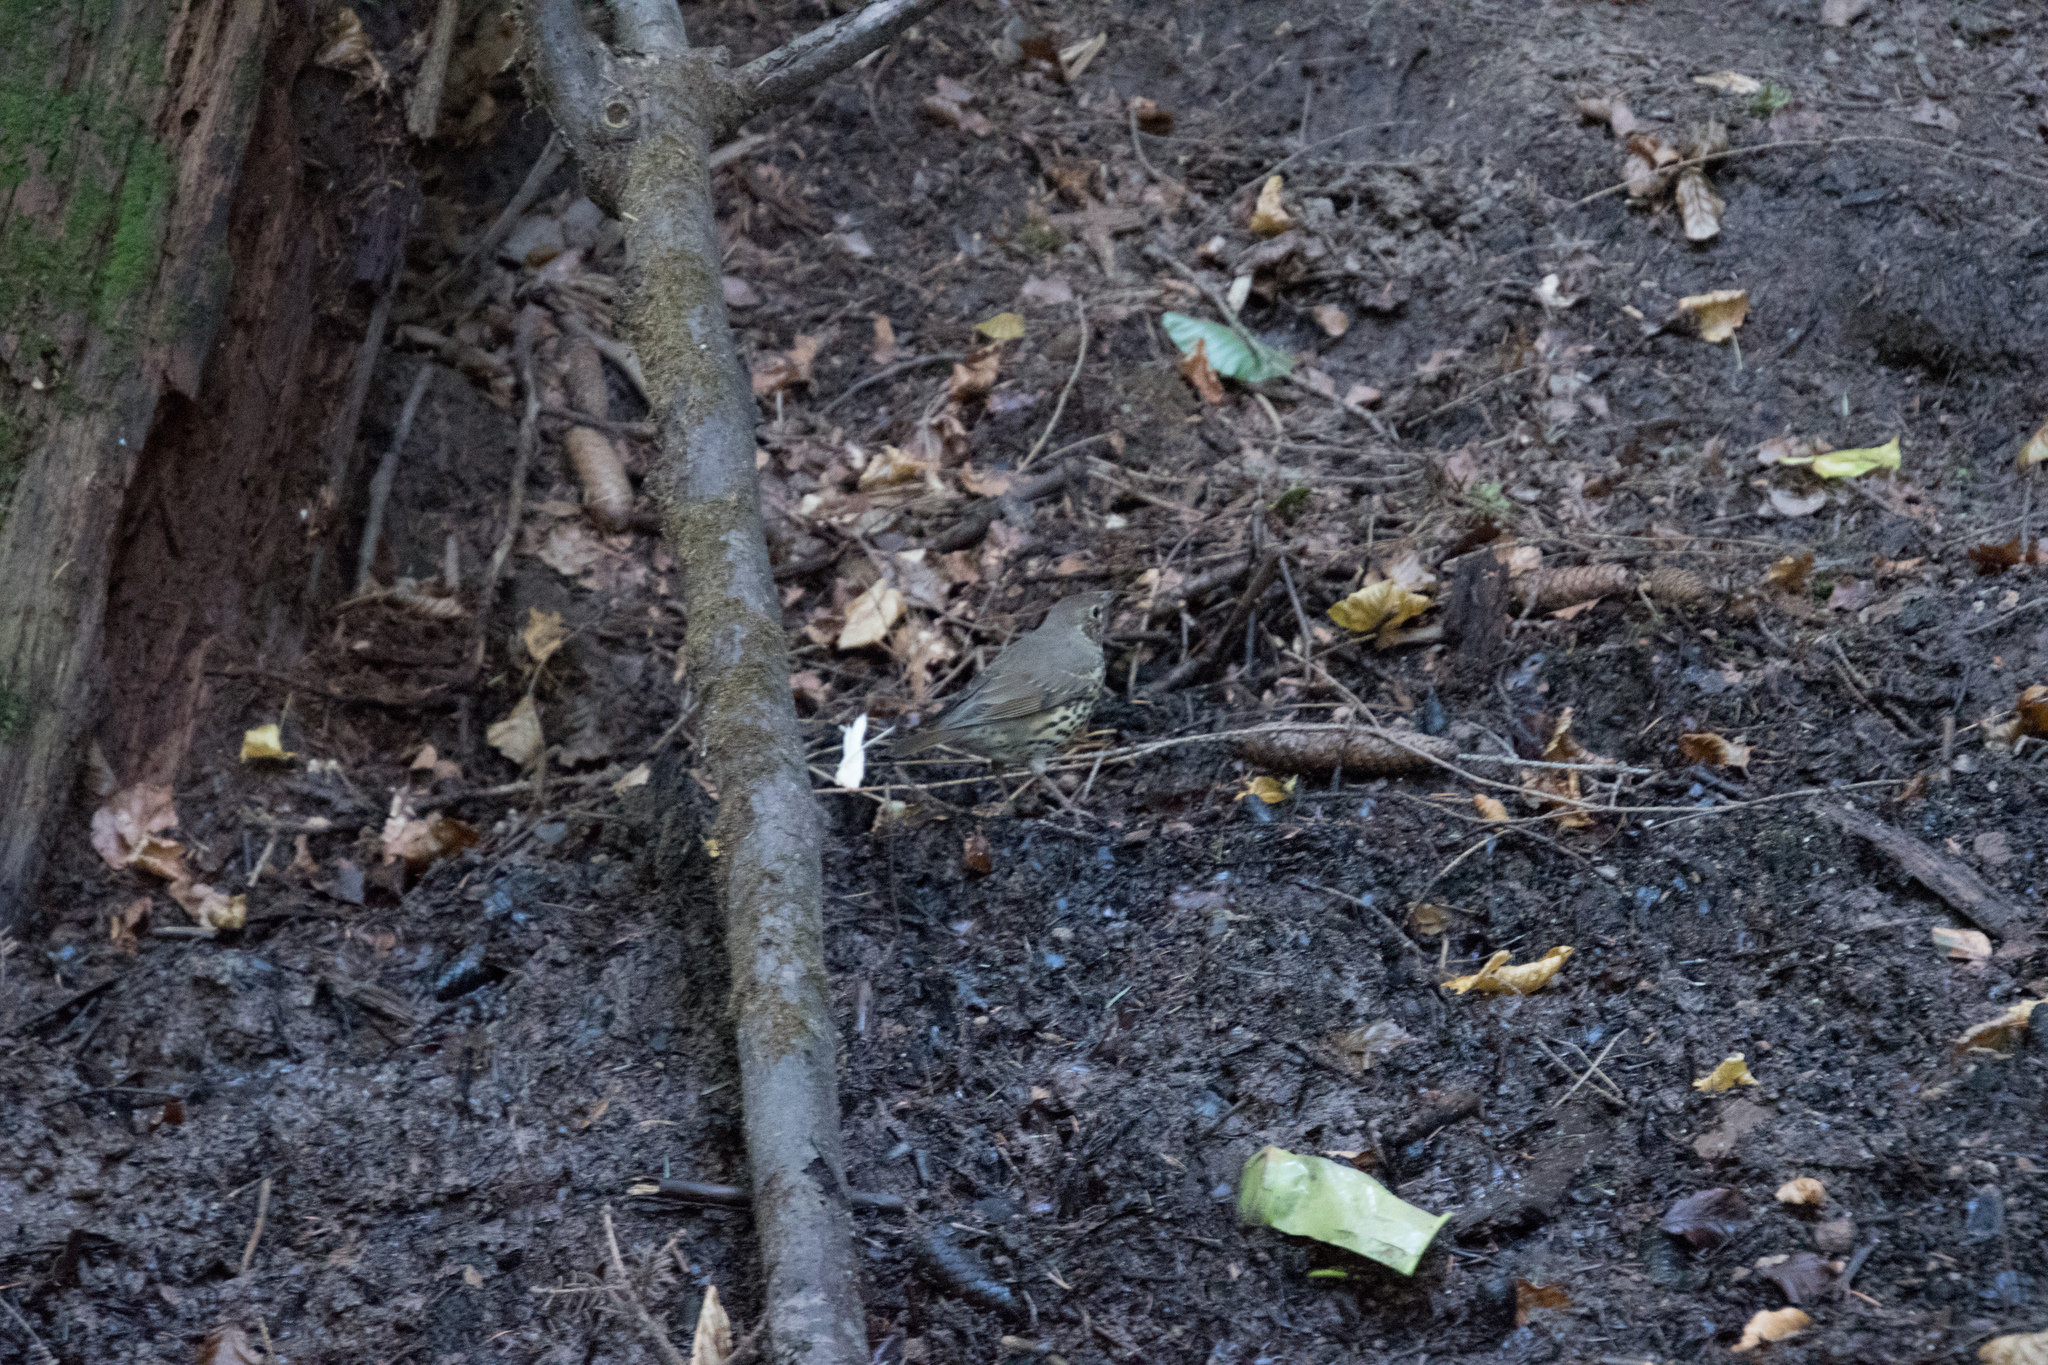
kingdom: Animalia
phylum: Chordata
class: Aves
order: Passeriformes
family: Turdidae
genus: Turdus
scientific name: Turdus philomelos
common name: Song thrush
